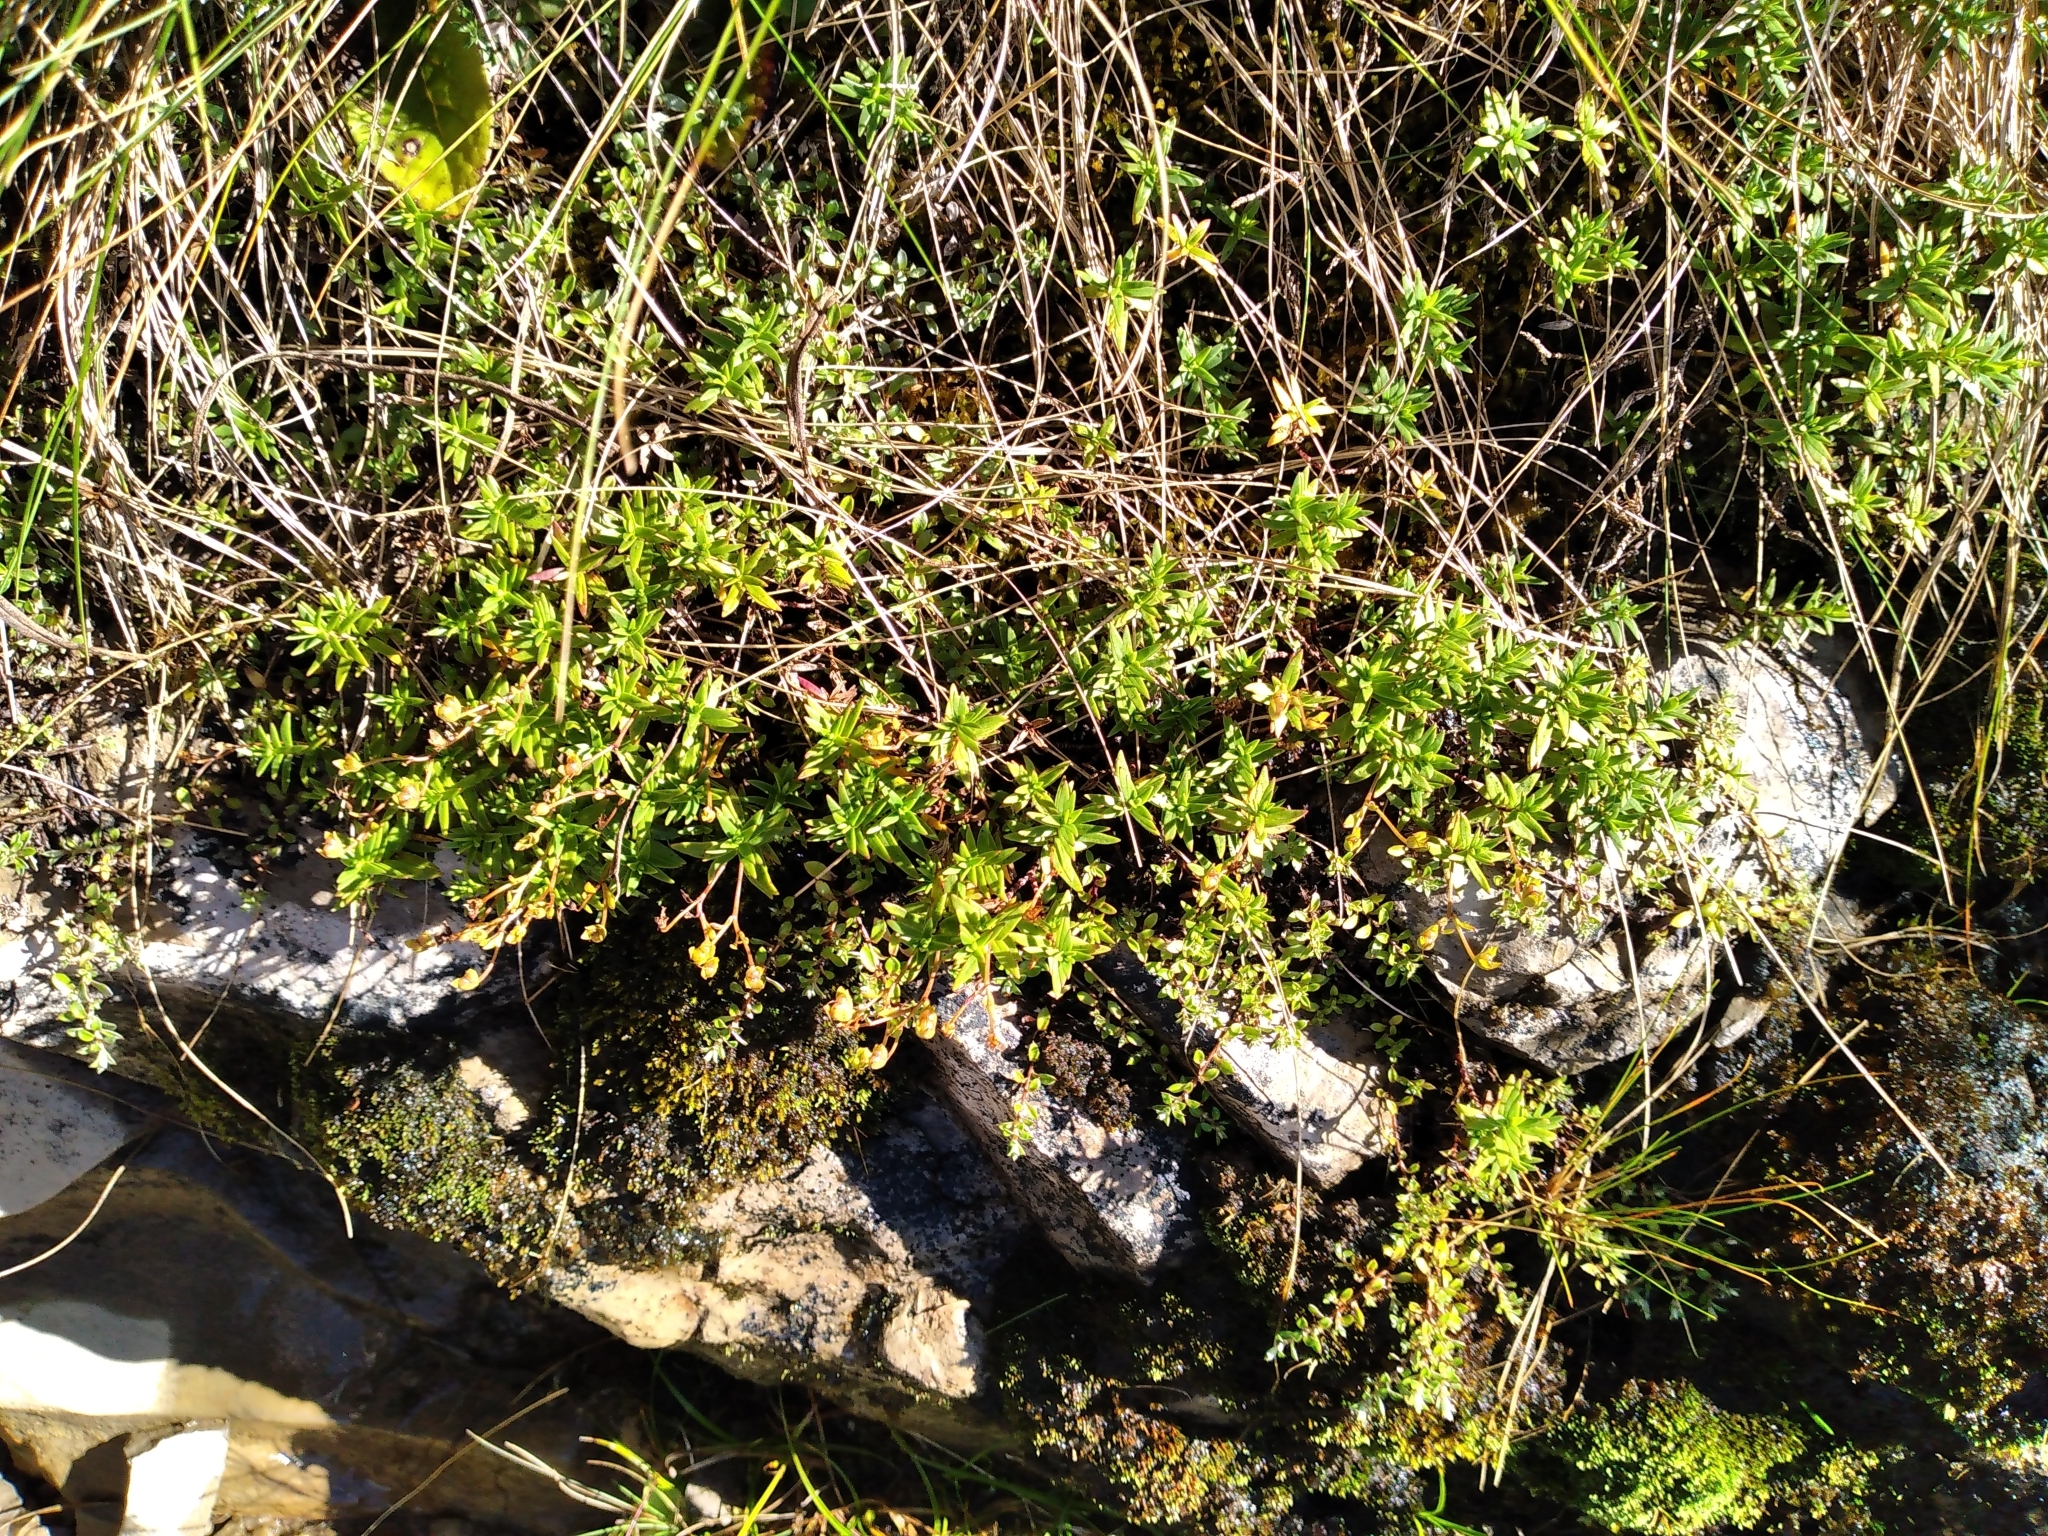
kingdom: Plantae
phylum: Tracheophyta
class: Magnoliopsida
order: Lamiales
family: Plantaginaceae
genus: Veronica
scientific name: Veronica linifolia
